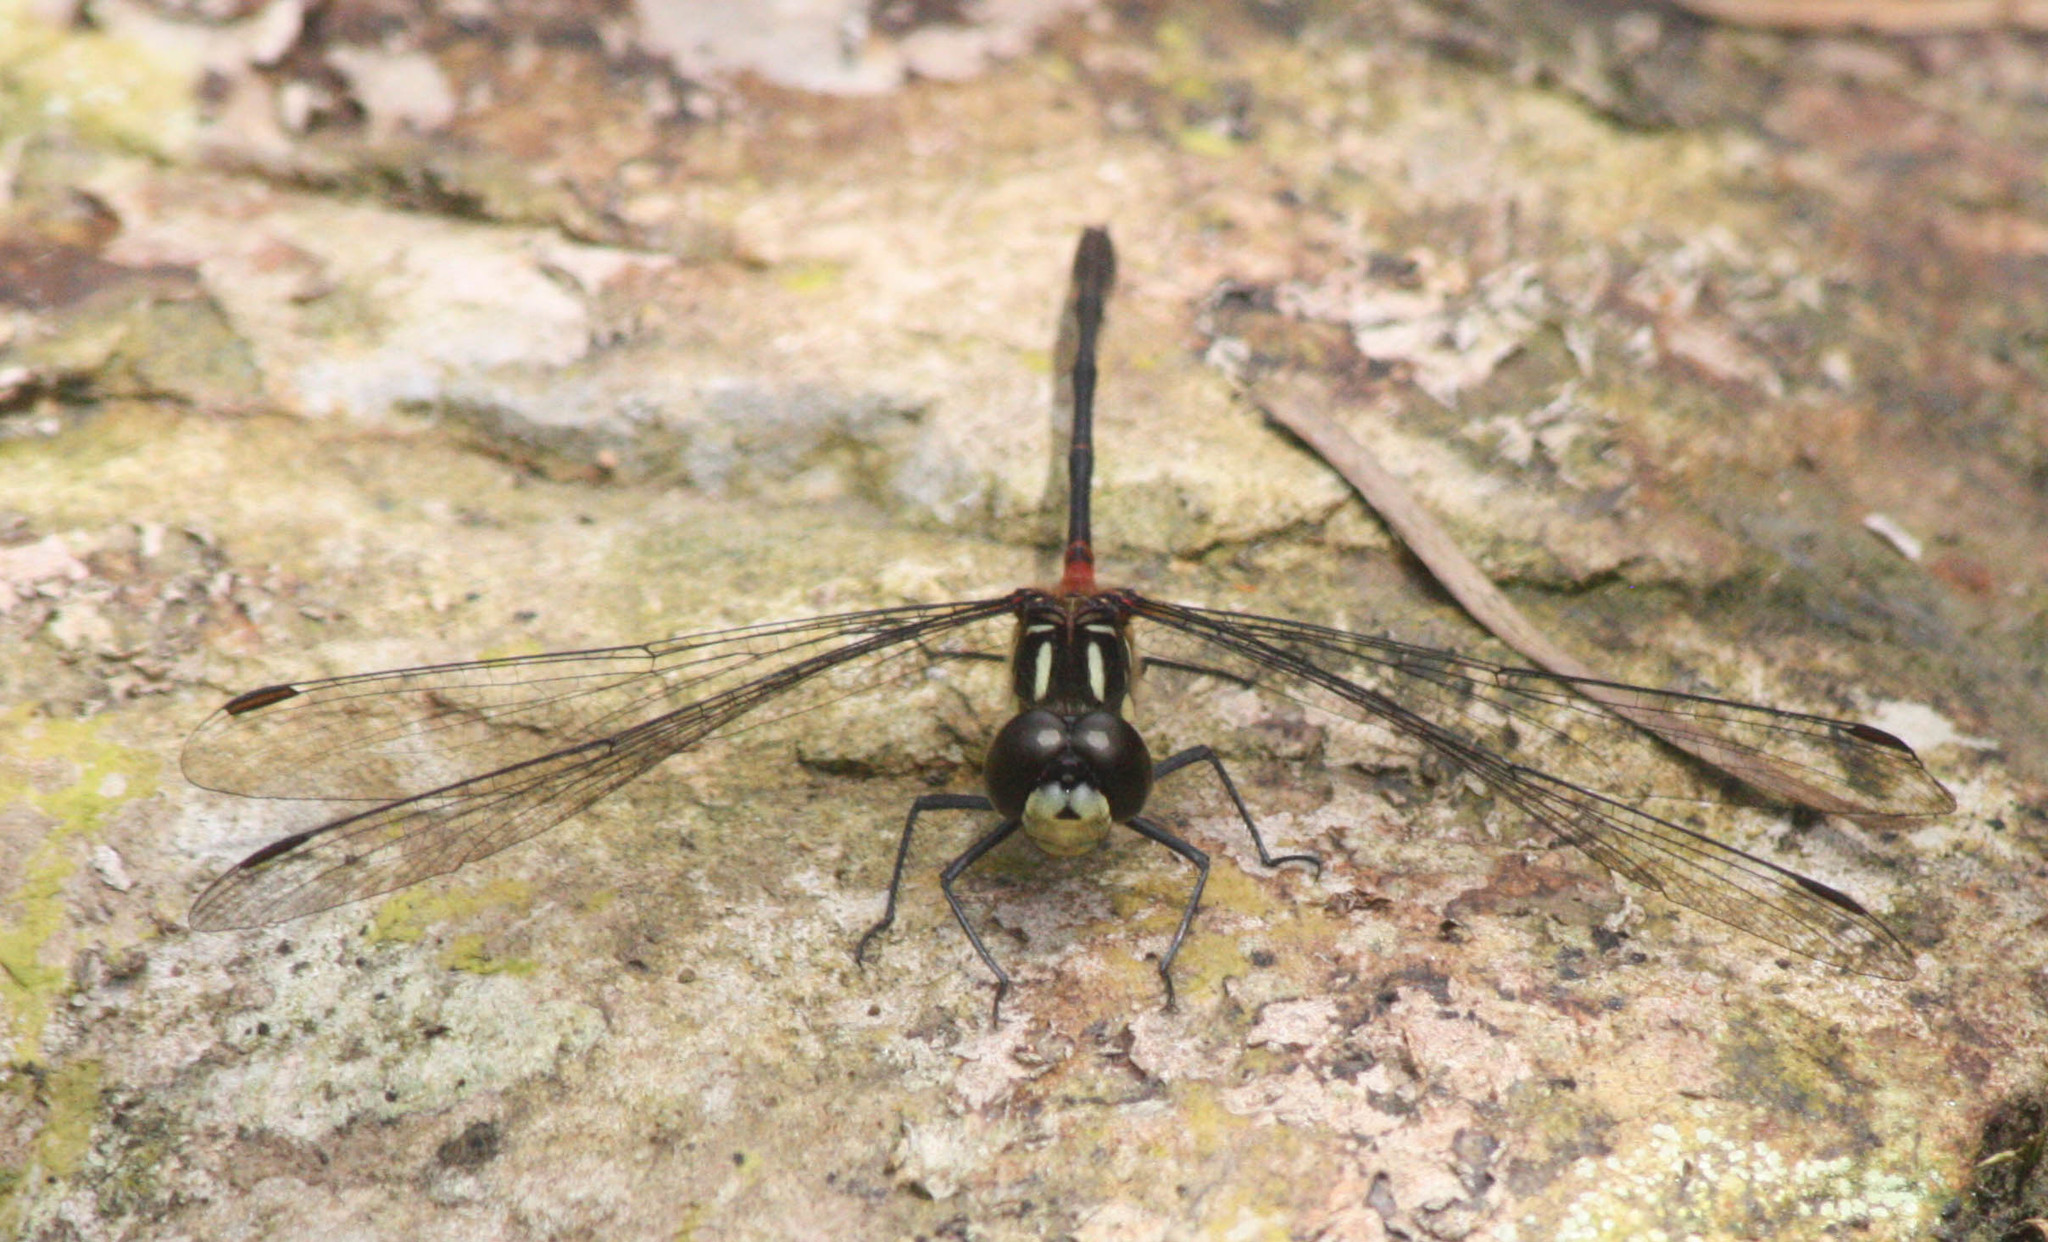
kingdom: Animalia
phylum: Arthropoda
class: Insecta
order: Odonata
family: Libellulidae
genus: Nesogonia
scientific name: Nesogonia blackburni
